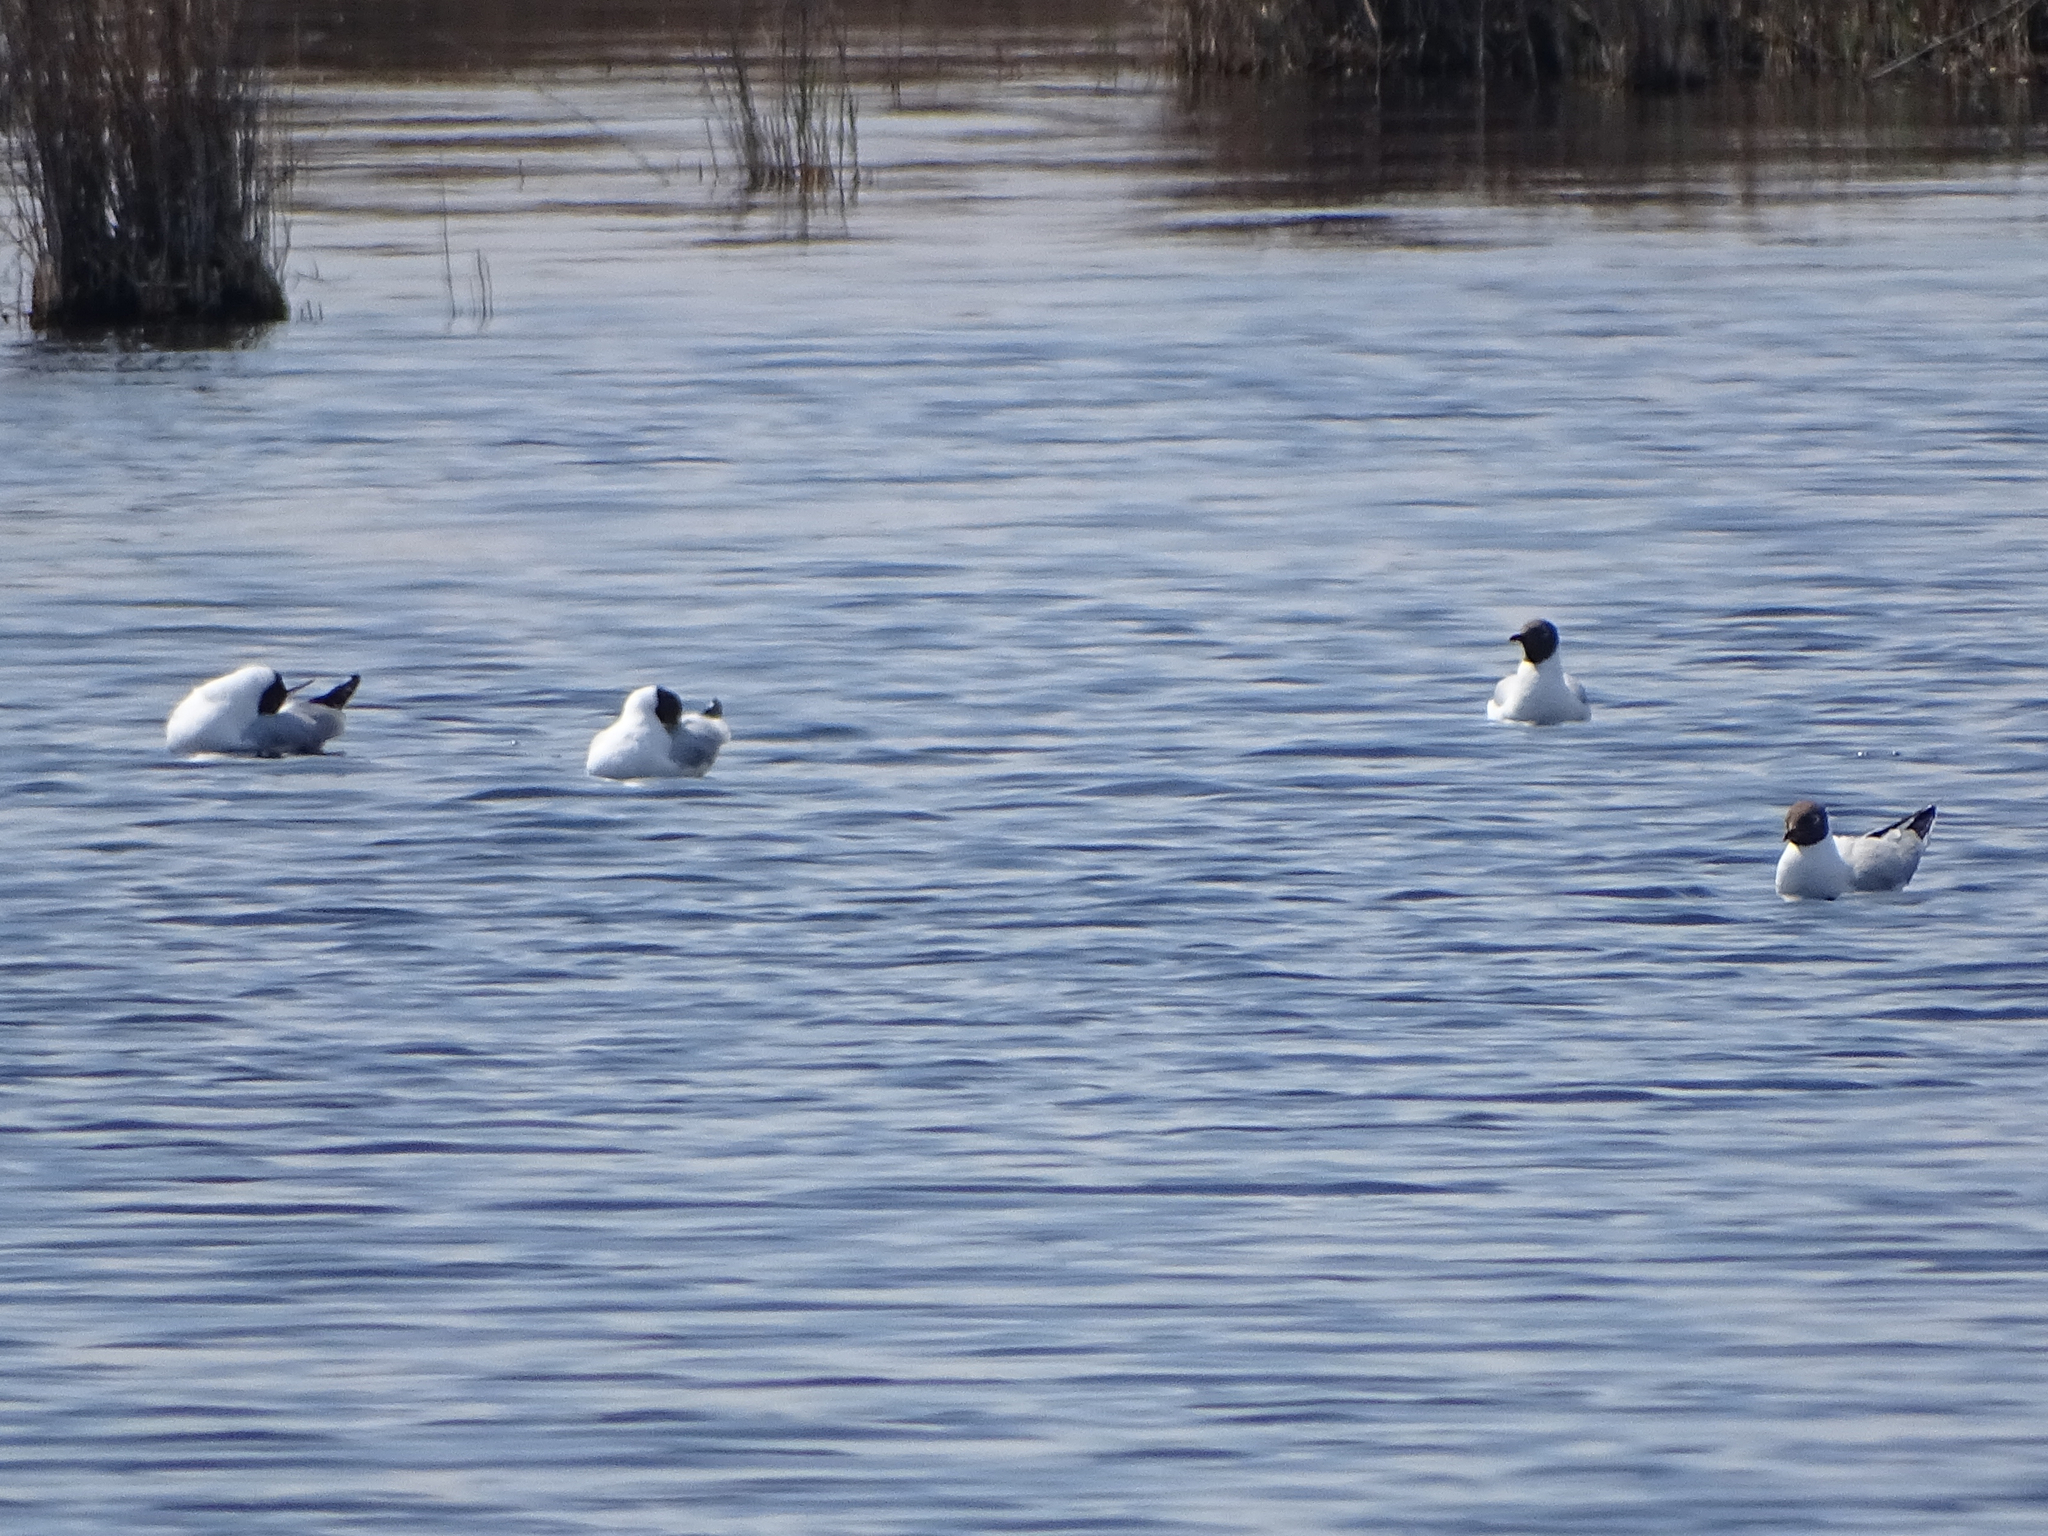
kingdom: Animalia
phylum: Chordata
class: Aves
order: Charadriiformes
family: Laridae
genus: Chroicocephalus
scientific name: Chroicocephalus ridibundus
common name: Black-headed gull
